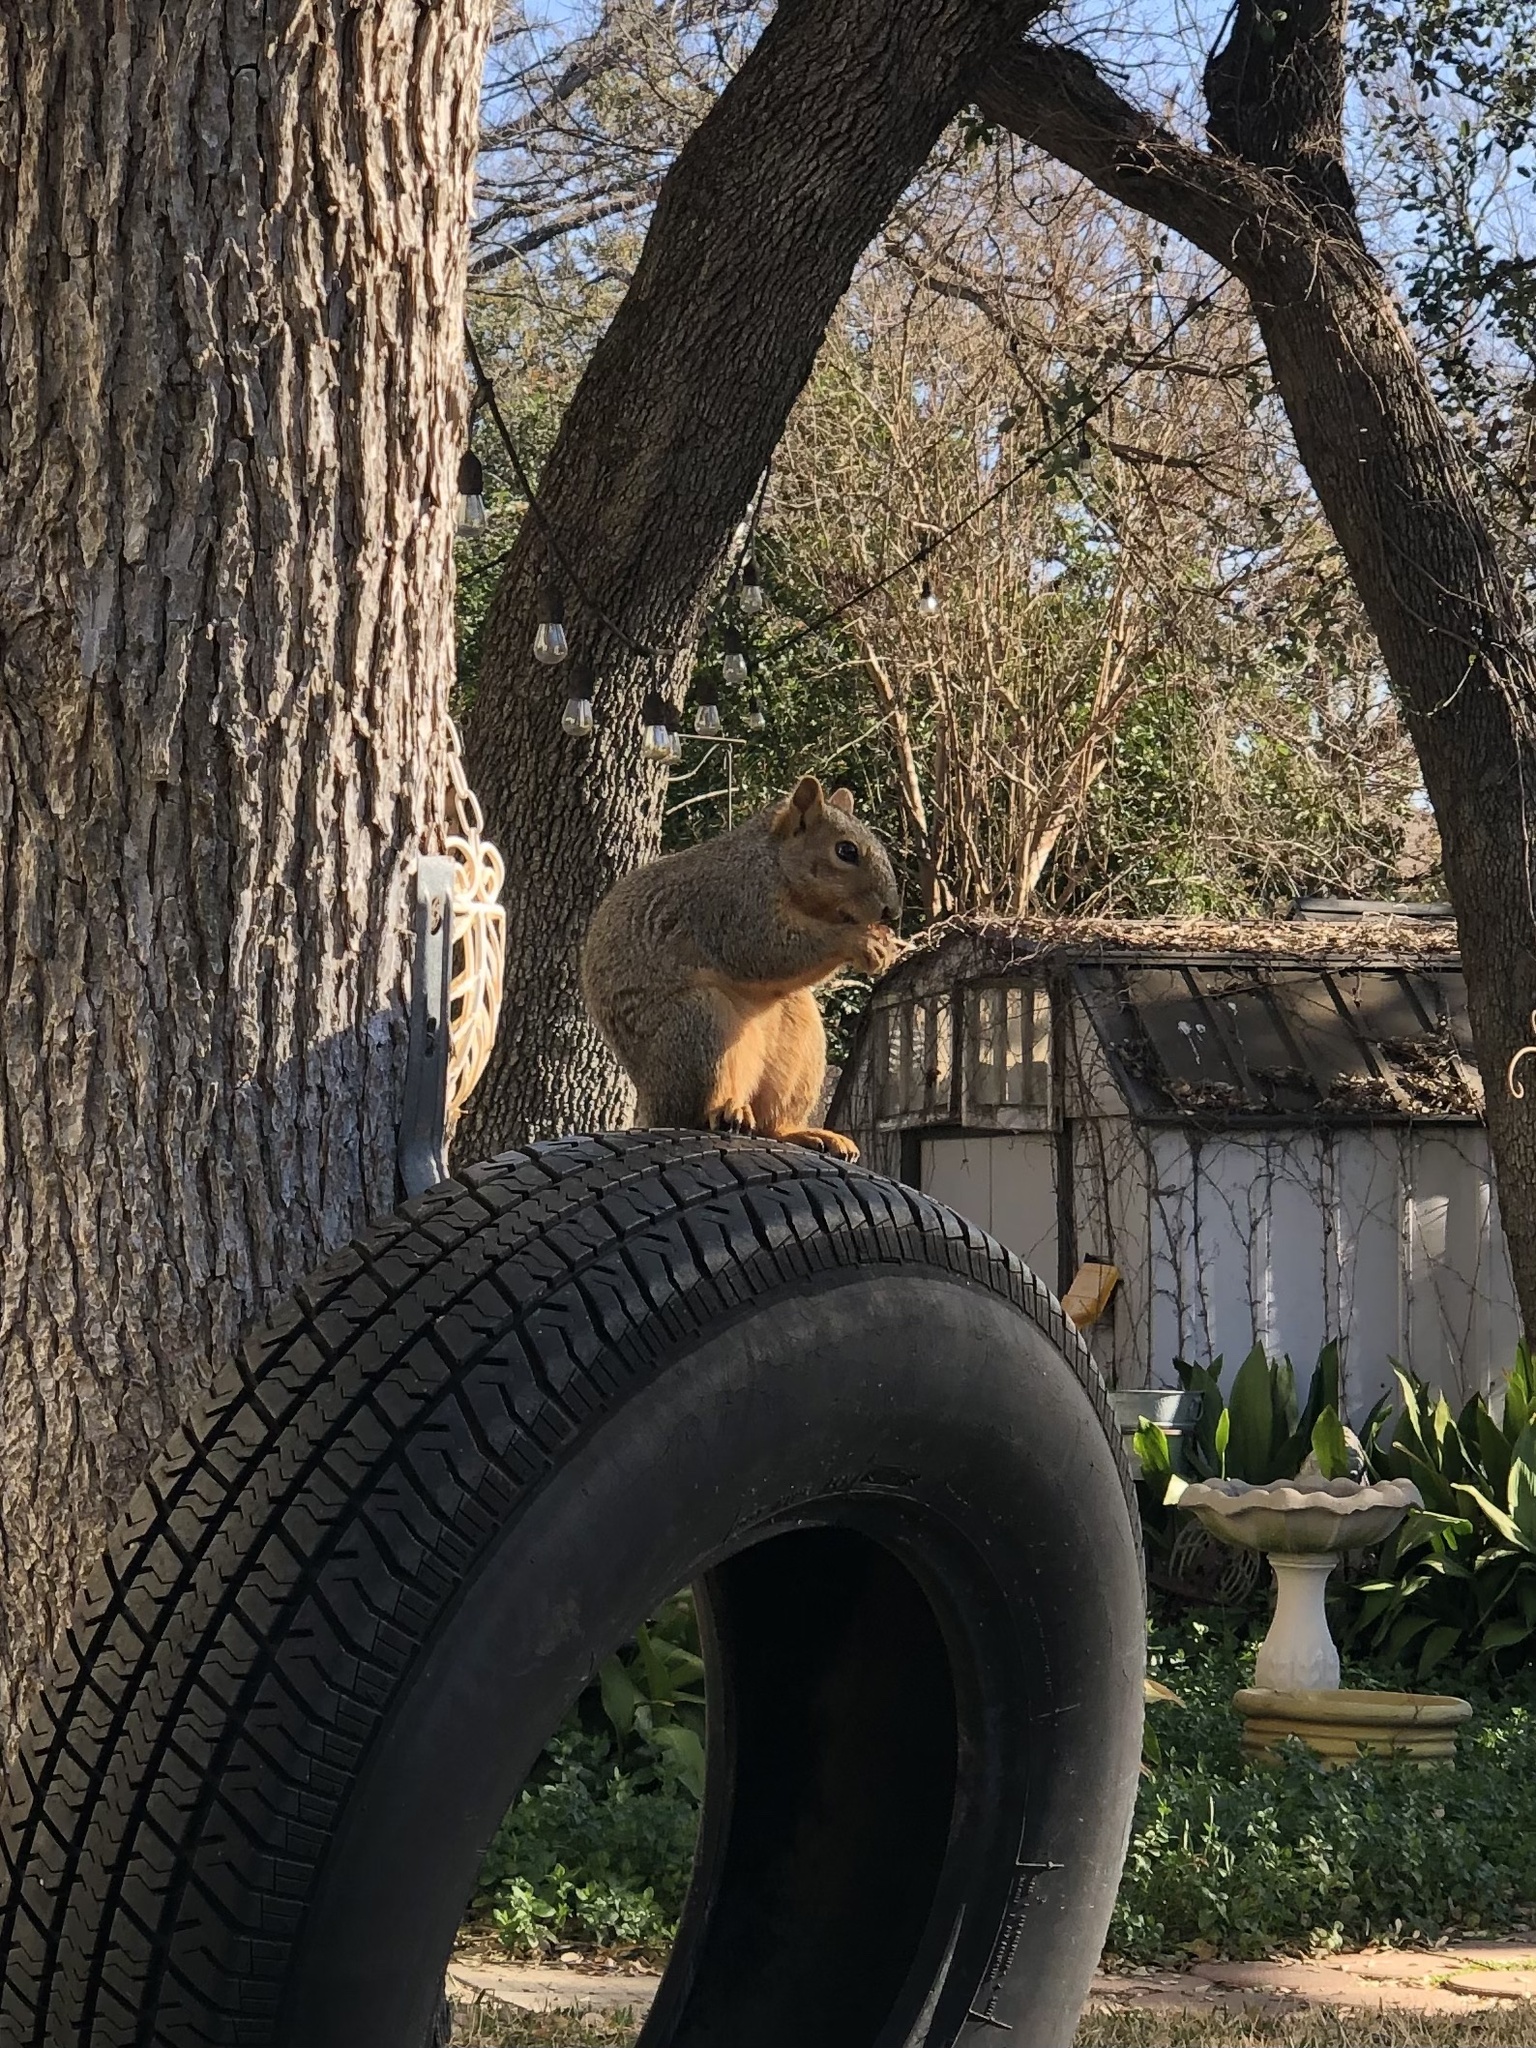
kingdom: Animalia
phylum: Chordata
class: Mammalia
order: Rodentia
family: Sciuridae
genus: Sciurus
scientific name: Sciurus niger
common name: Fox squirrel
